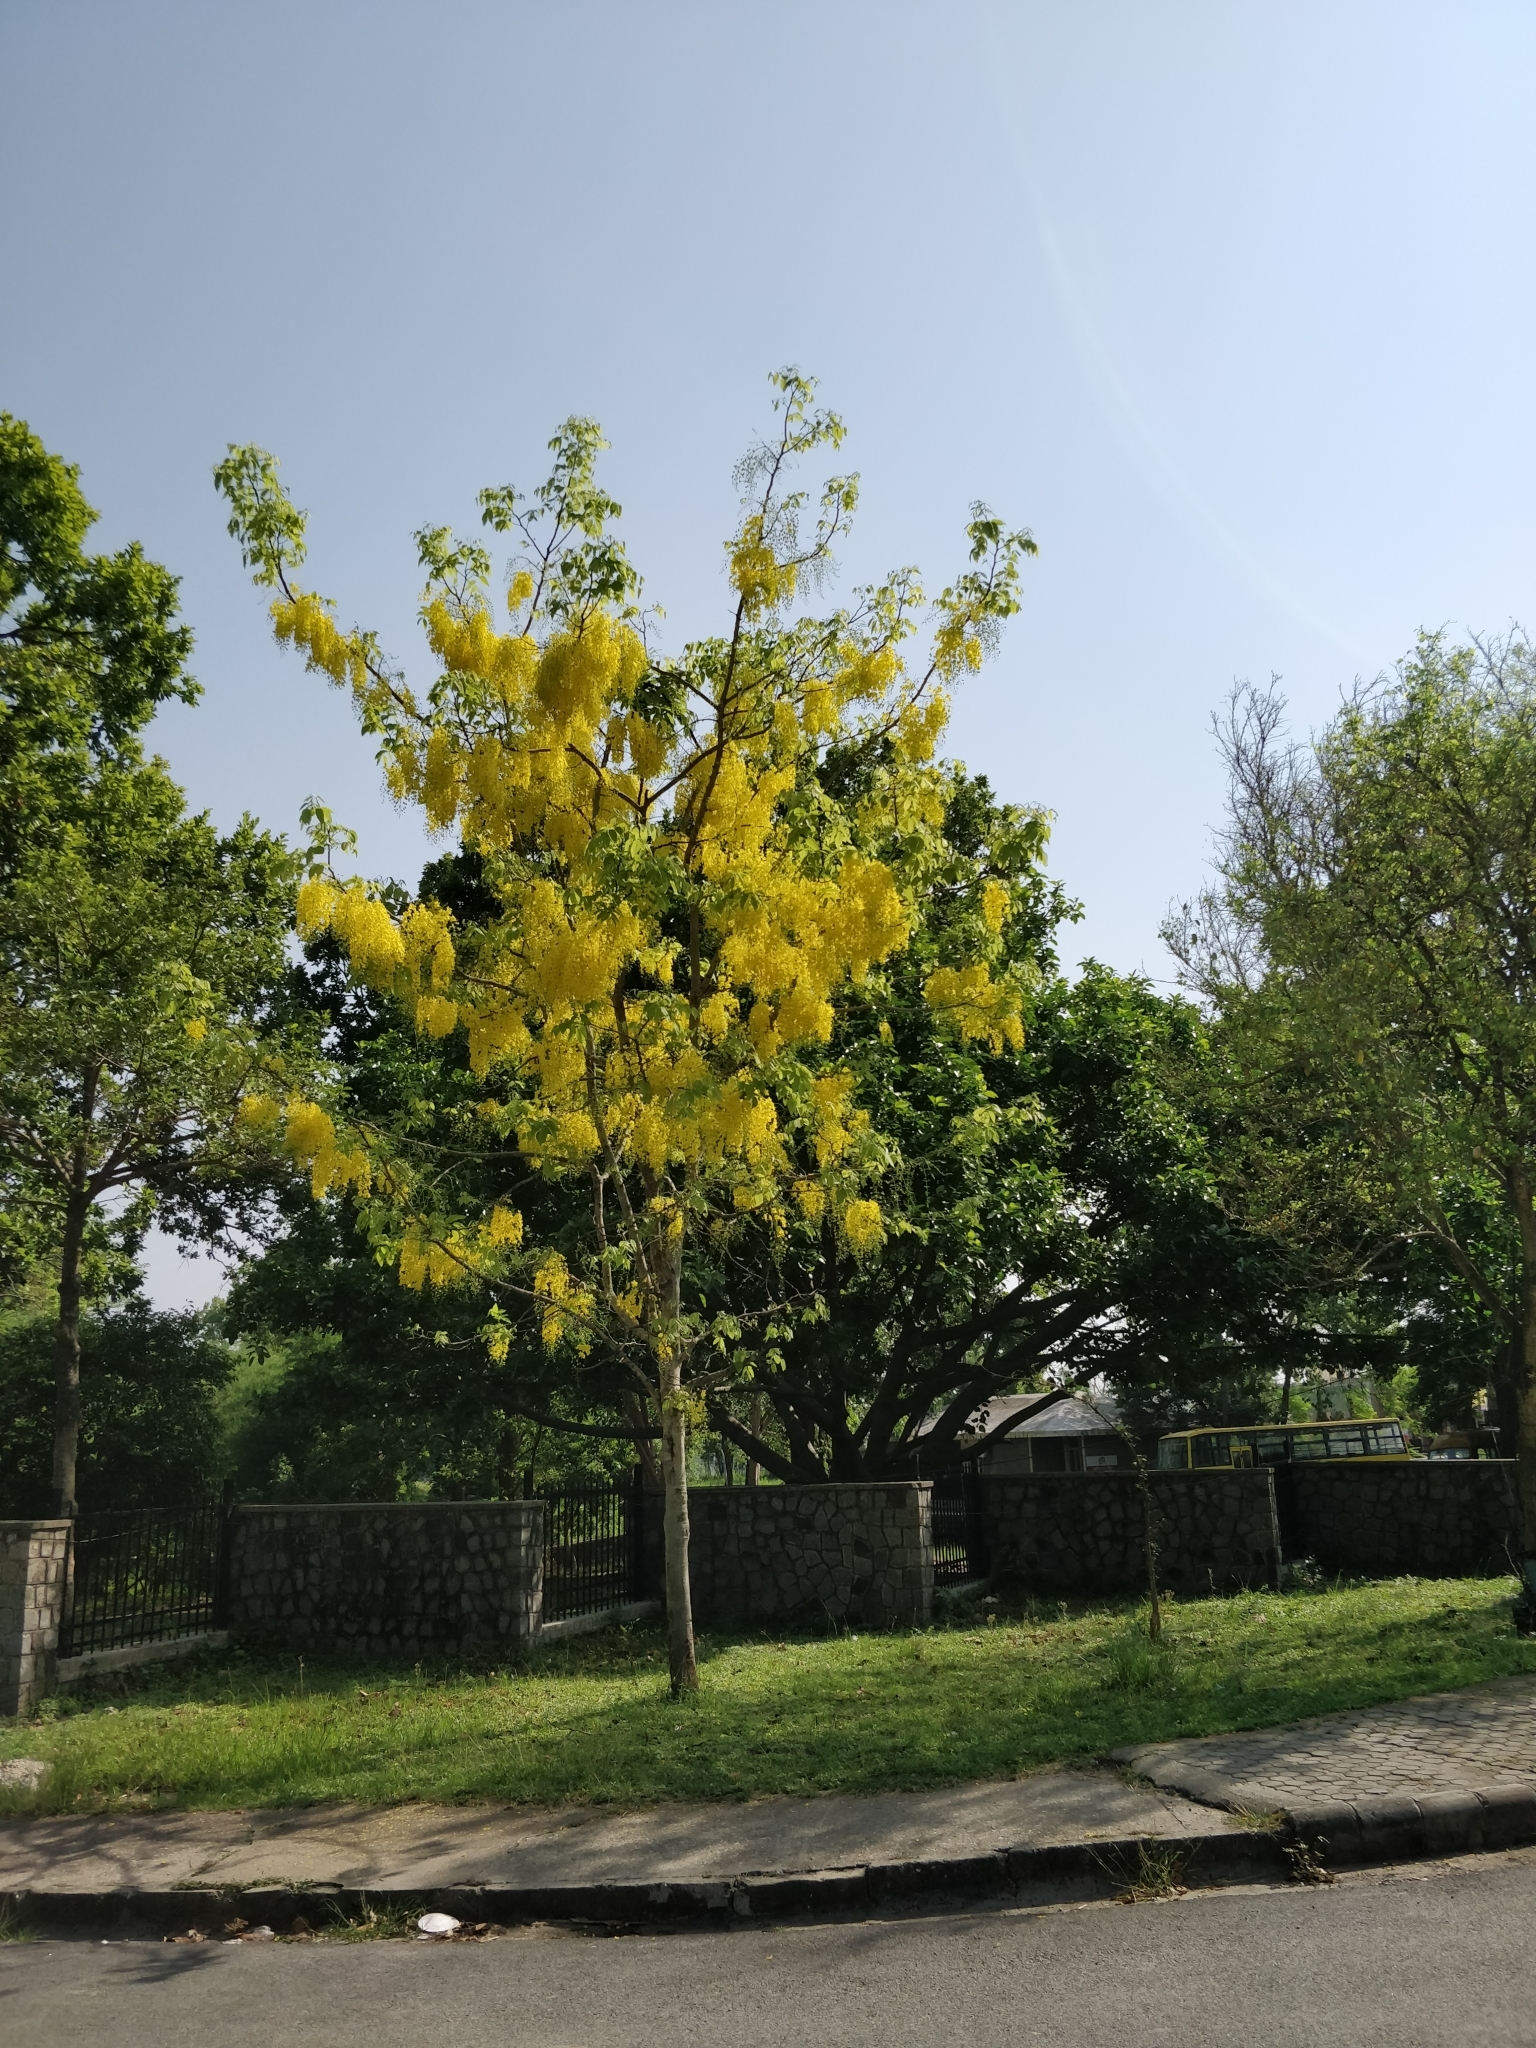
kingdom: Plantae
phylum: Tracheophyta
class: Magnoliopsida
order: Fabales
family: Fabaceae
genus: Cassia
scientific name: Cassia fistula
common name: Golden shower
